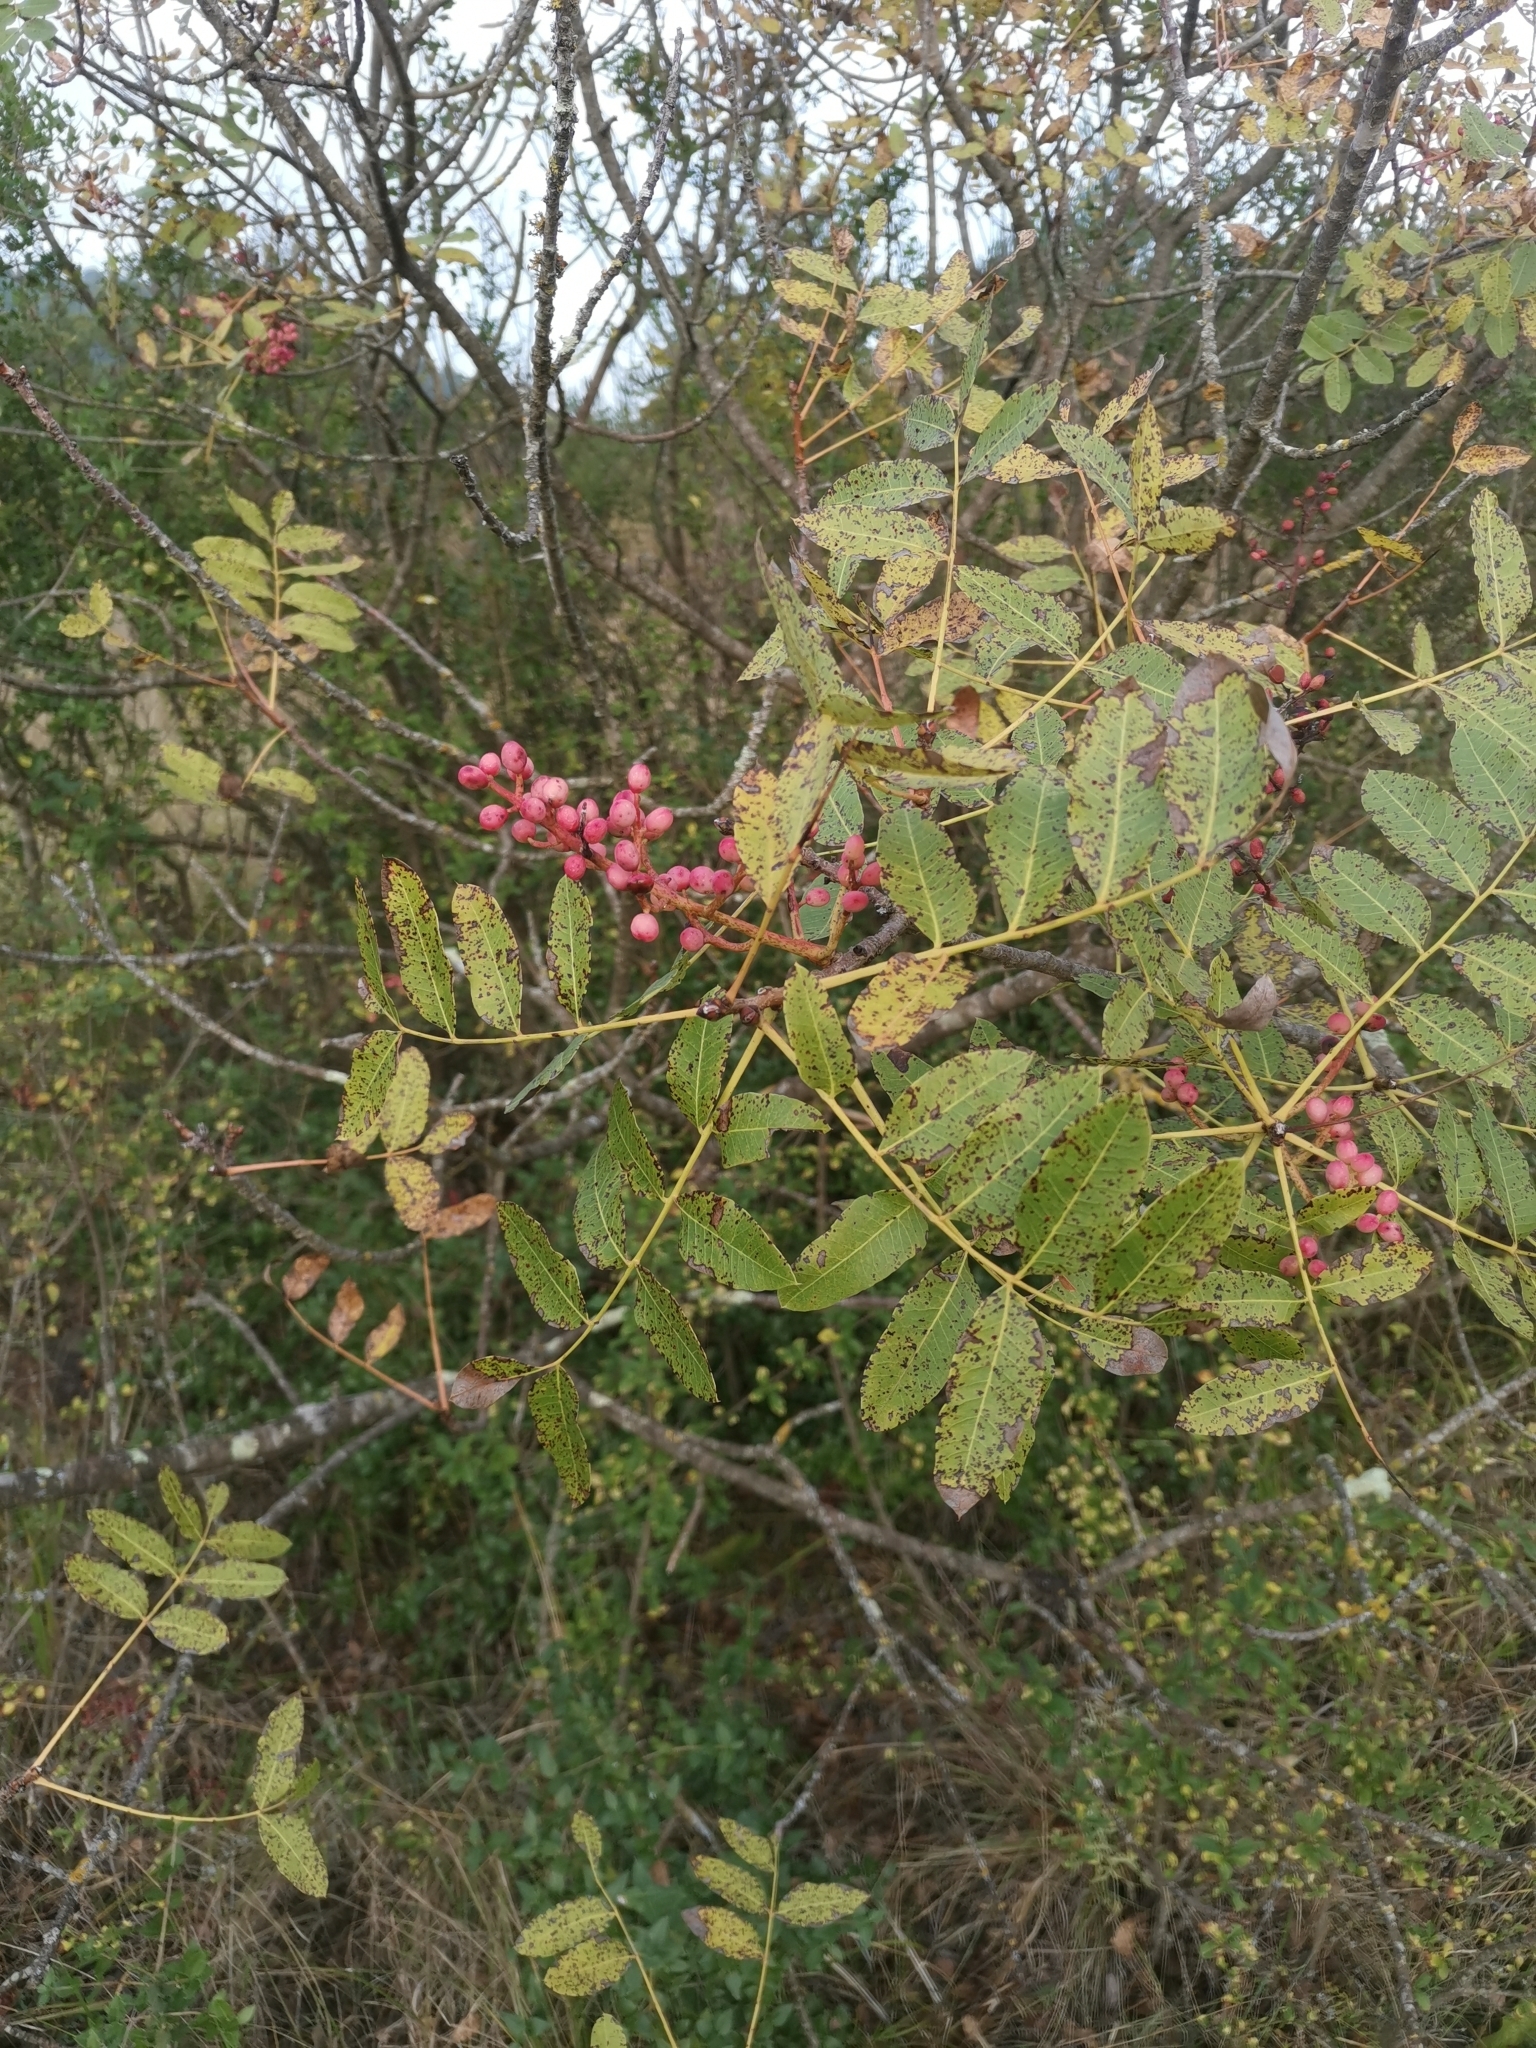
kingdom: Plantae
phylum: Tracheophyta
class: Magnoliopsida
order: Sapindales
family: Anacardiaceae
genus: Pistacia
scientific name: Pistacia terebinthus
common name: Terebinth
